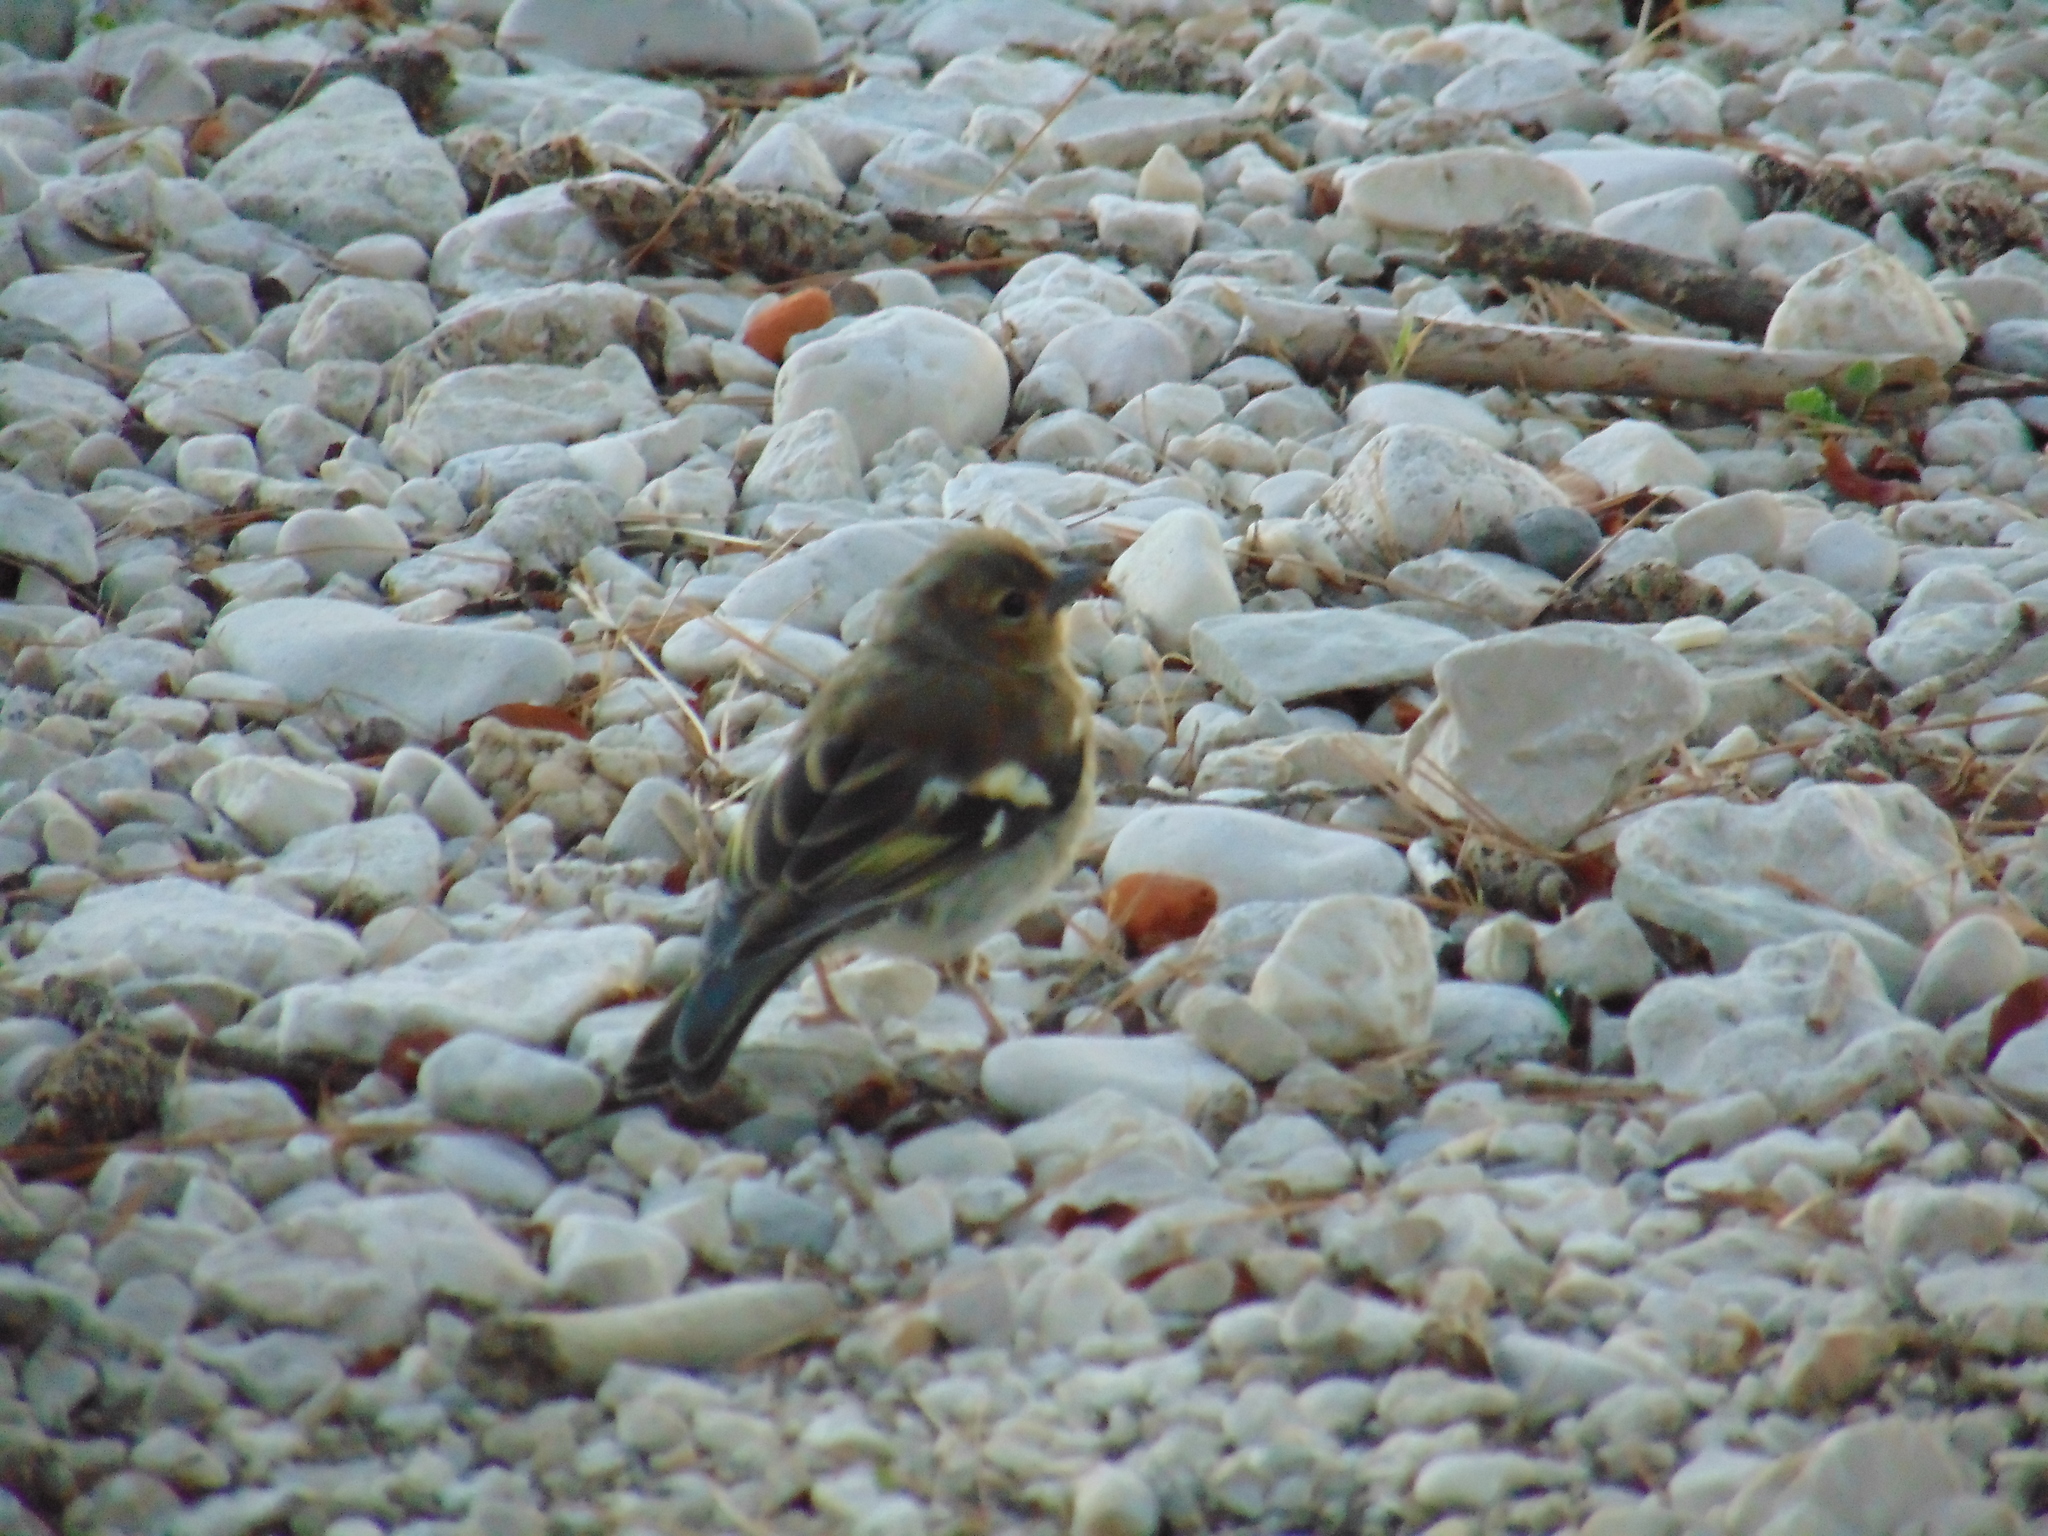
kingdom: Animalia
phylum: Chordata
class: Aves
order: Passeriformes
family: Fringillidae
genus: Fringilla
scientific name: Fringilla coelebs
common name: Common chaffinch
